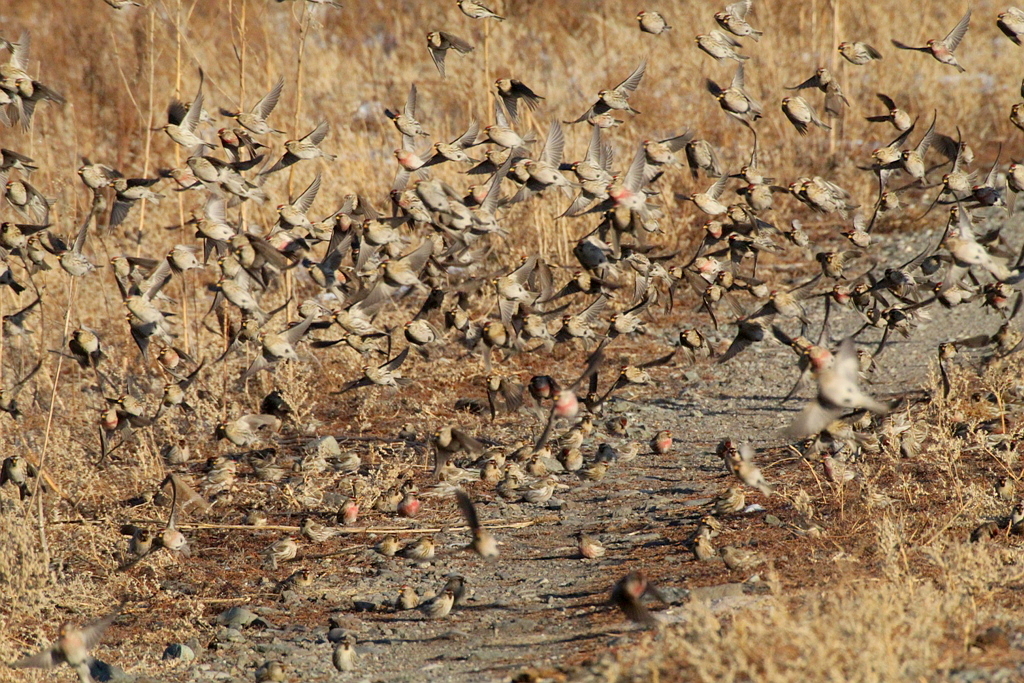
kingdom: Animalia
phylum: Chordata
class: Aves
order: Passeriformes
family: Fringillidae
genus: Acanthis
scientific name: Acanthis flammea
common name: Common redpoll
